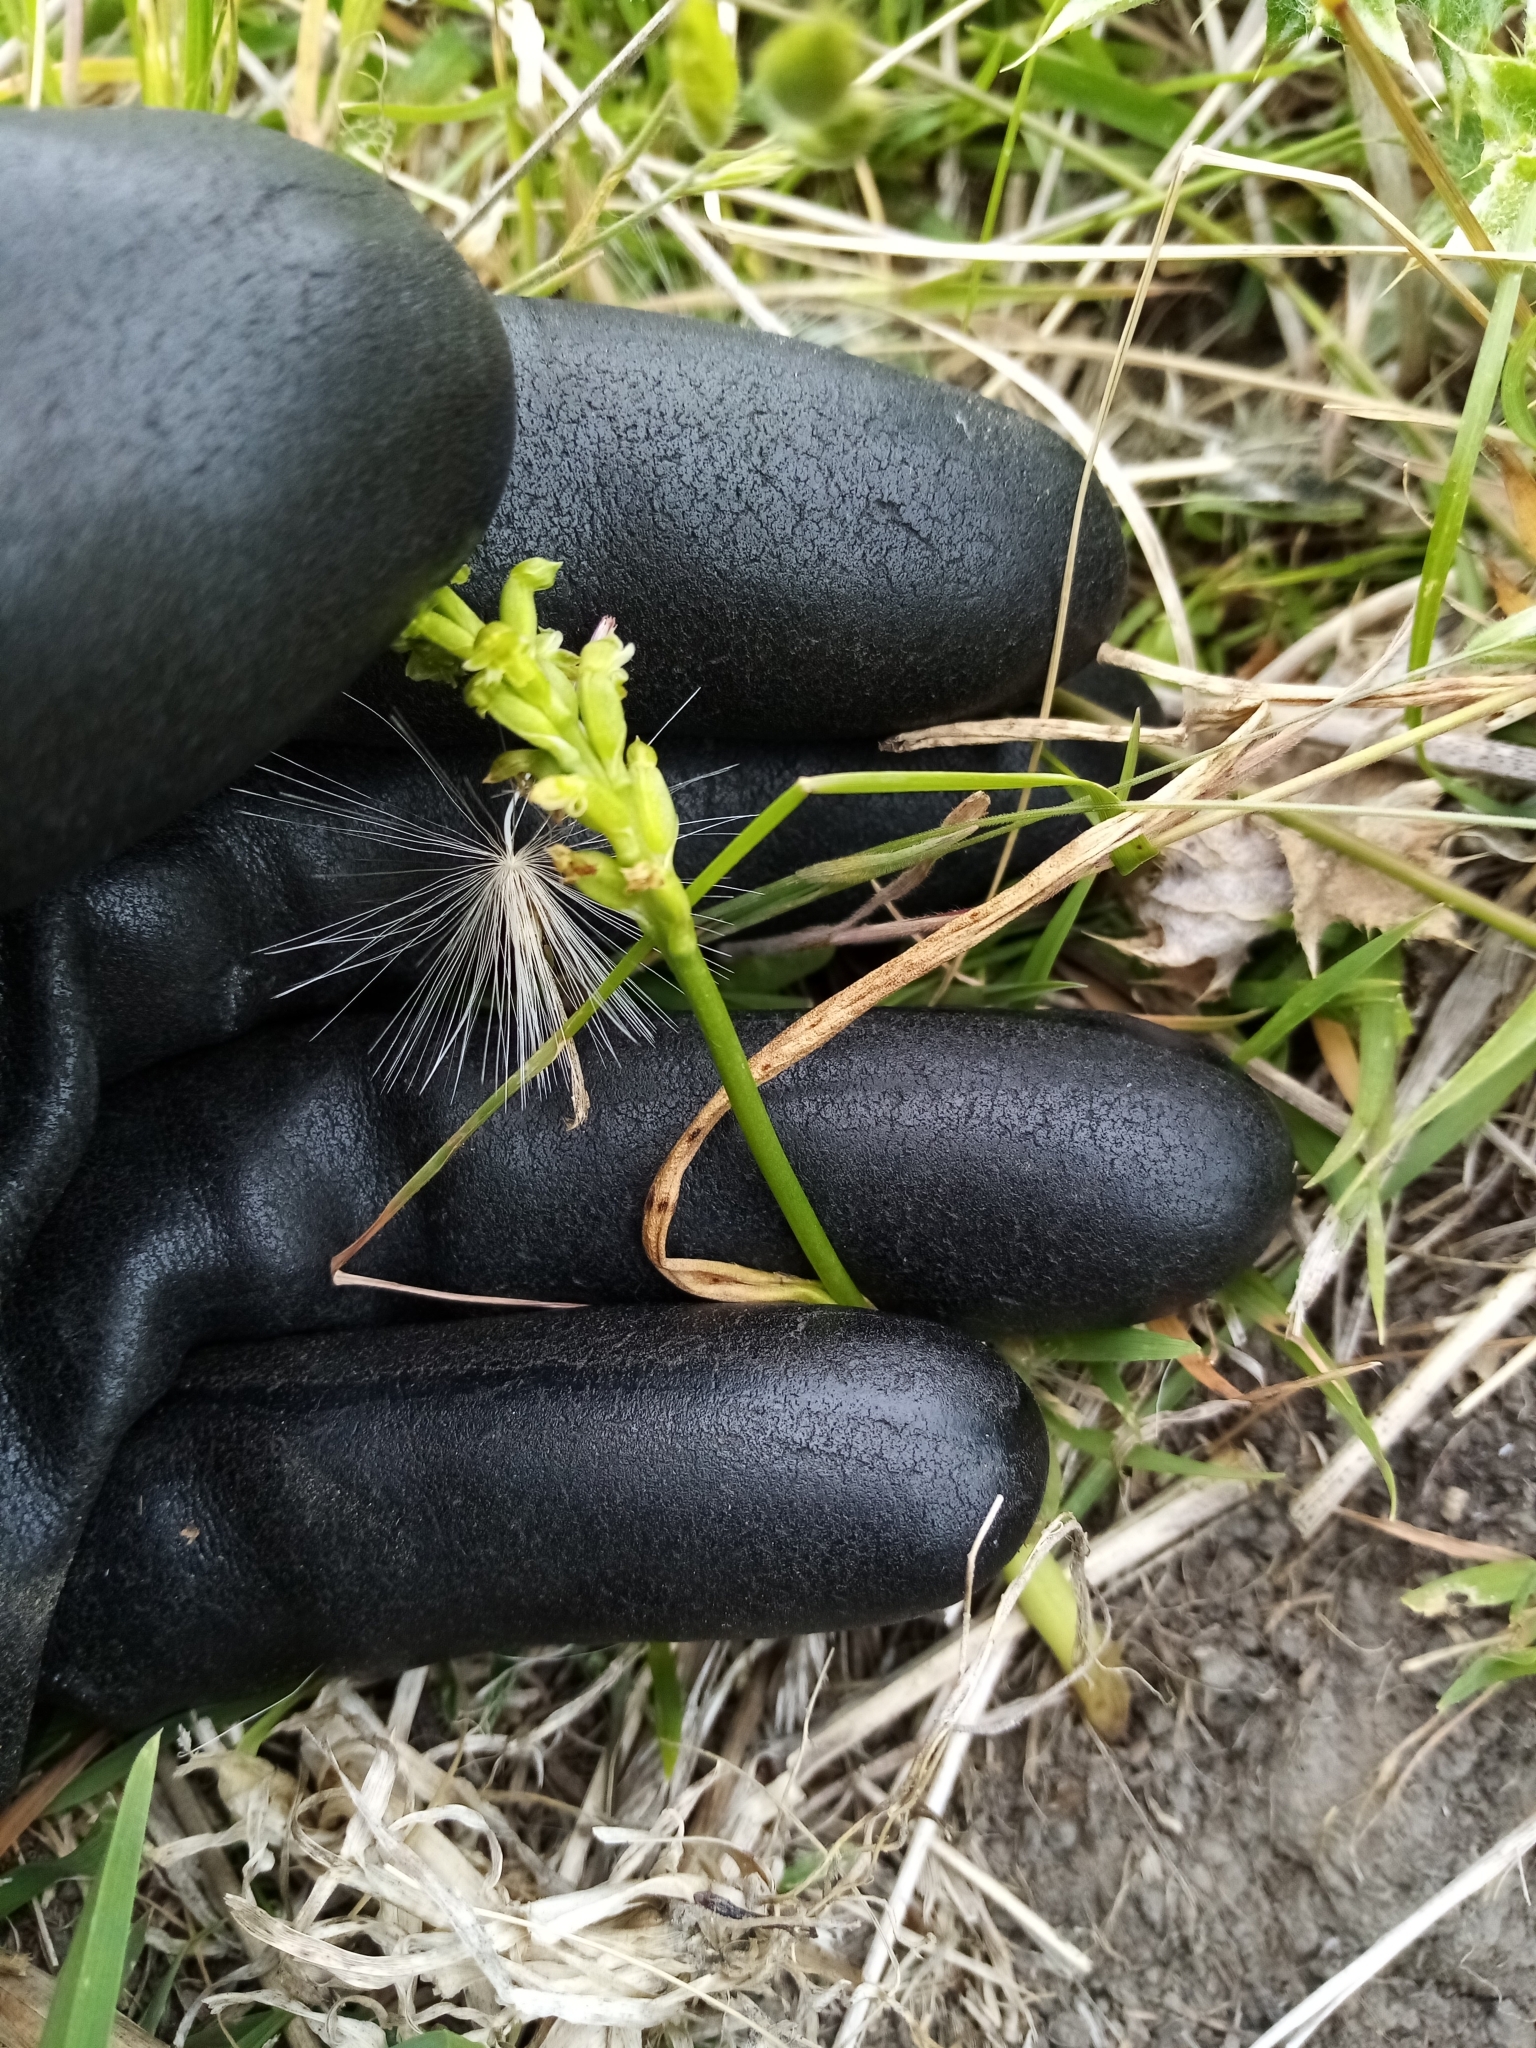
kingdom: Plantae
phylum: Tracheophyta
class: Liliopsida
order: Asparagales
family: Orchidaceae
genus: Microtis
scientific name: Microtis unifolia
